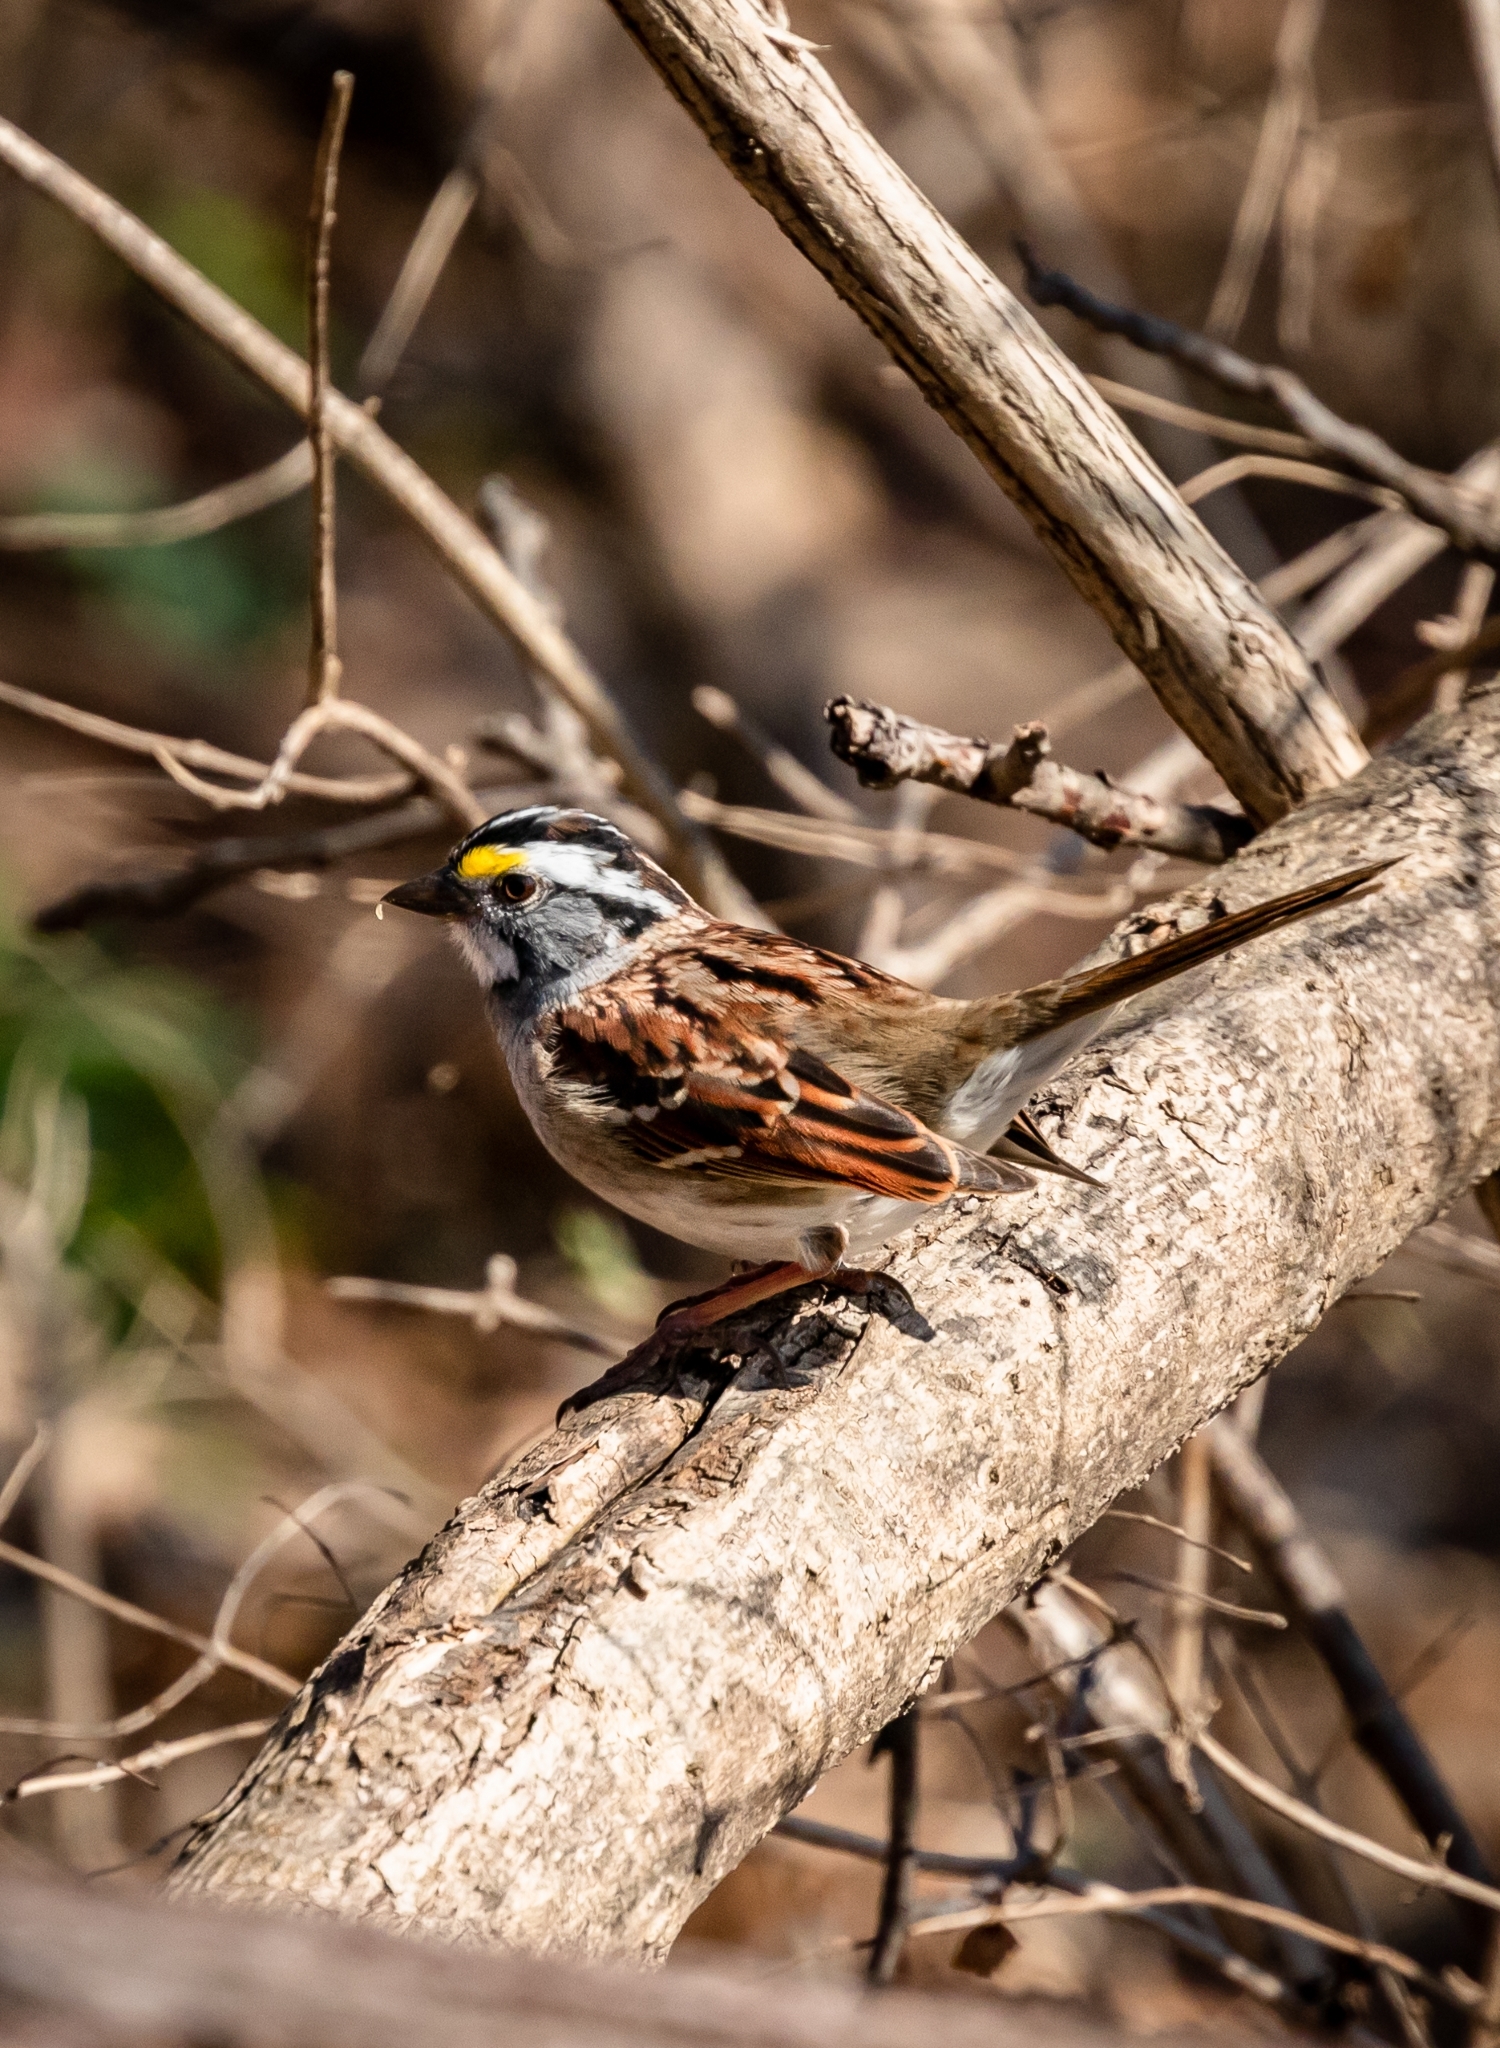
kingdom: Animalia
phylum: Chordata
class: Aves
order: Passeriformes
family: Passerellidae
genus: Zonotrichia
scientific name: Zonotrichia albicollis
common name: White-throated sparrow
